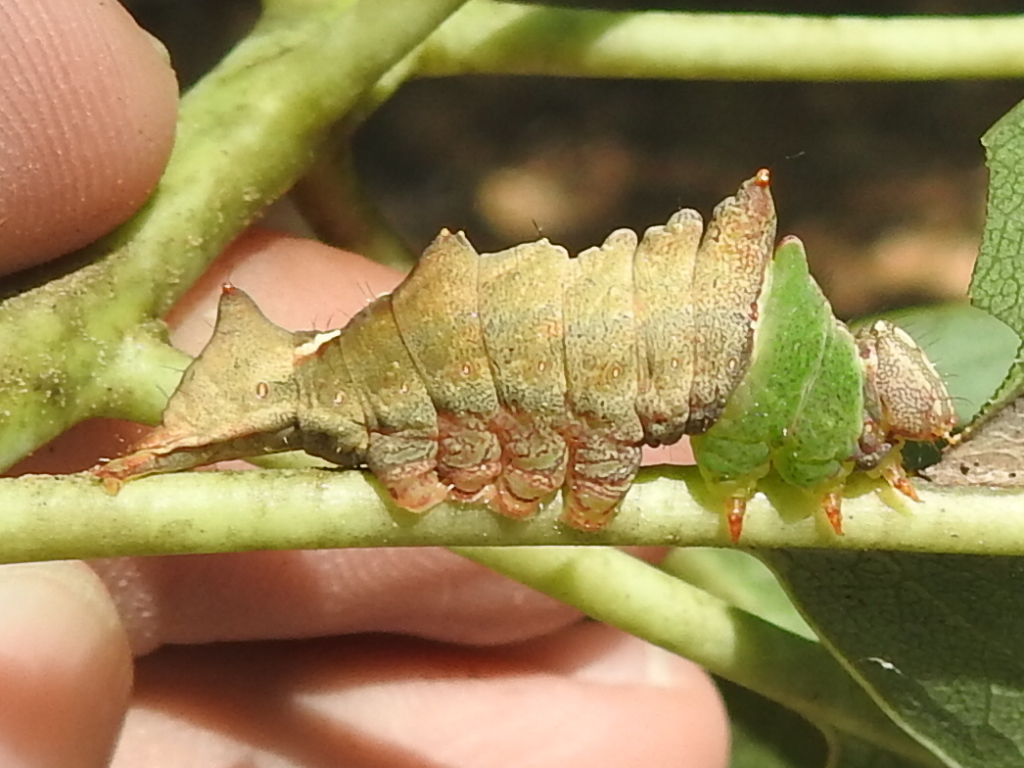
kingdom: Animalia
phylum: Arthropoda
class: Insecta
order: Lepidoptera
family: Notodontidae
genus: Schizura
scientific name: Schizura ipomaeae
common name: Morning-glory prominent
